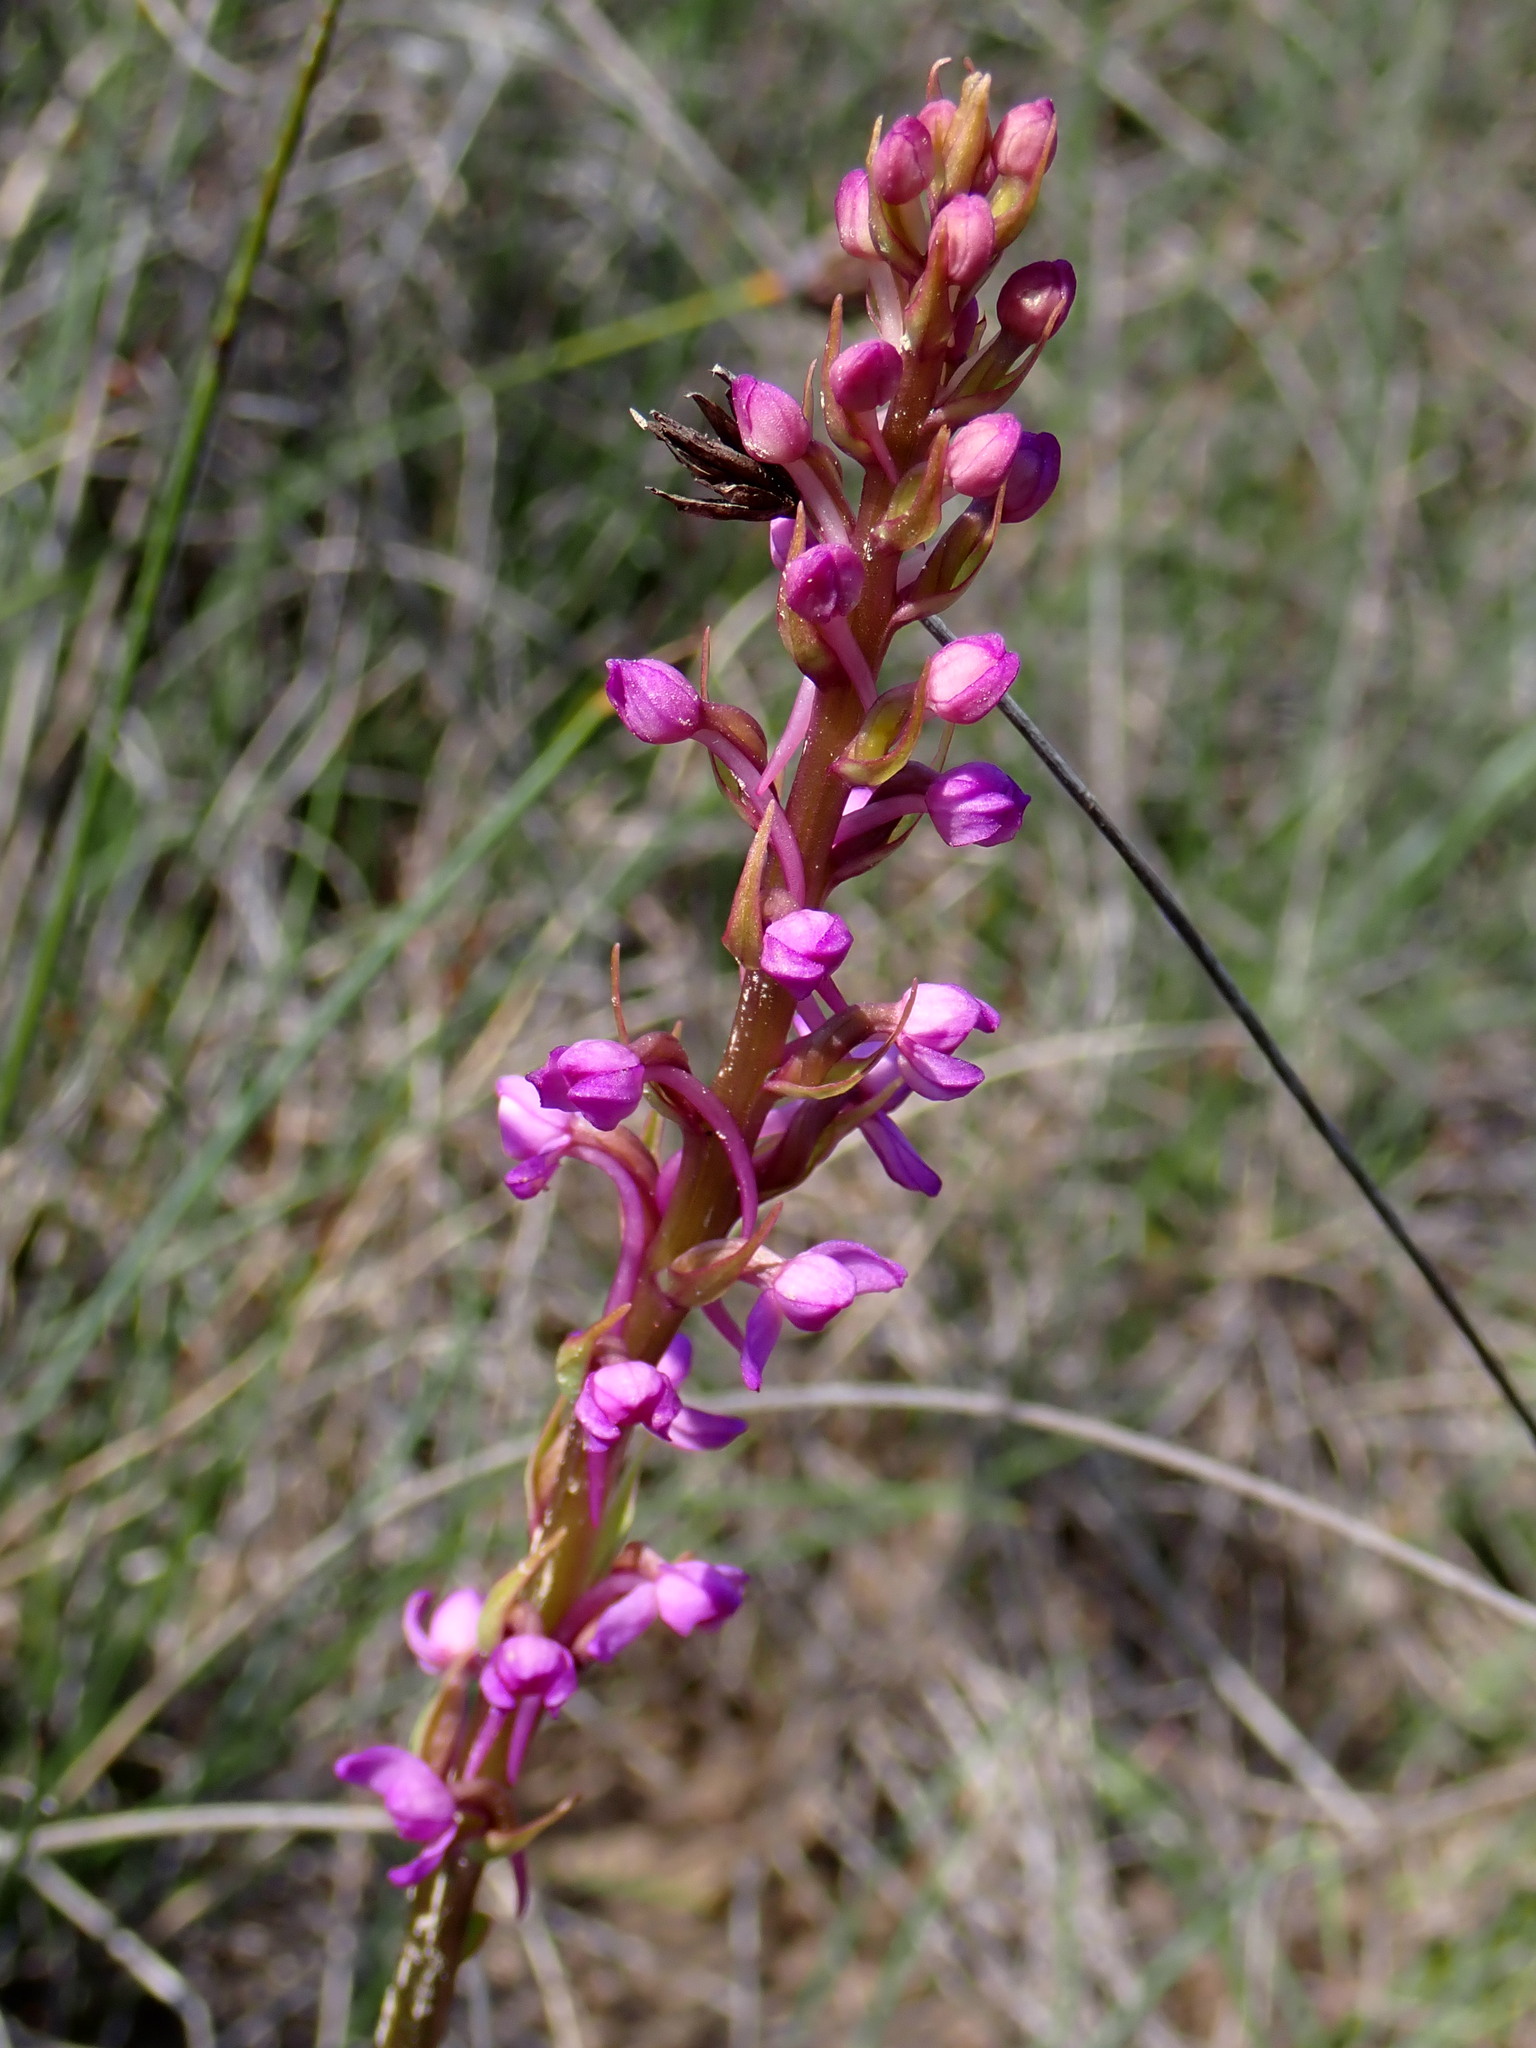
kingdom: Plantae
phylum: Tracheophyta
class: Liliopsida
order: Asparagales
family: Orchidaceae
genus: Gymnadenia
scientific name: Gymnadenia conopsea
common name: Fragrant orchid
